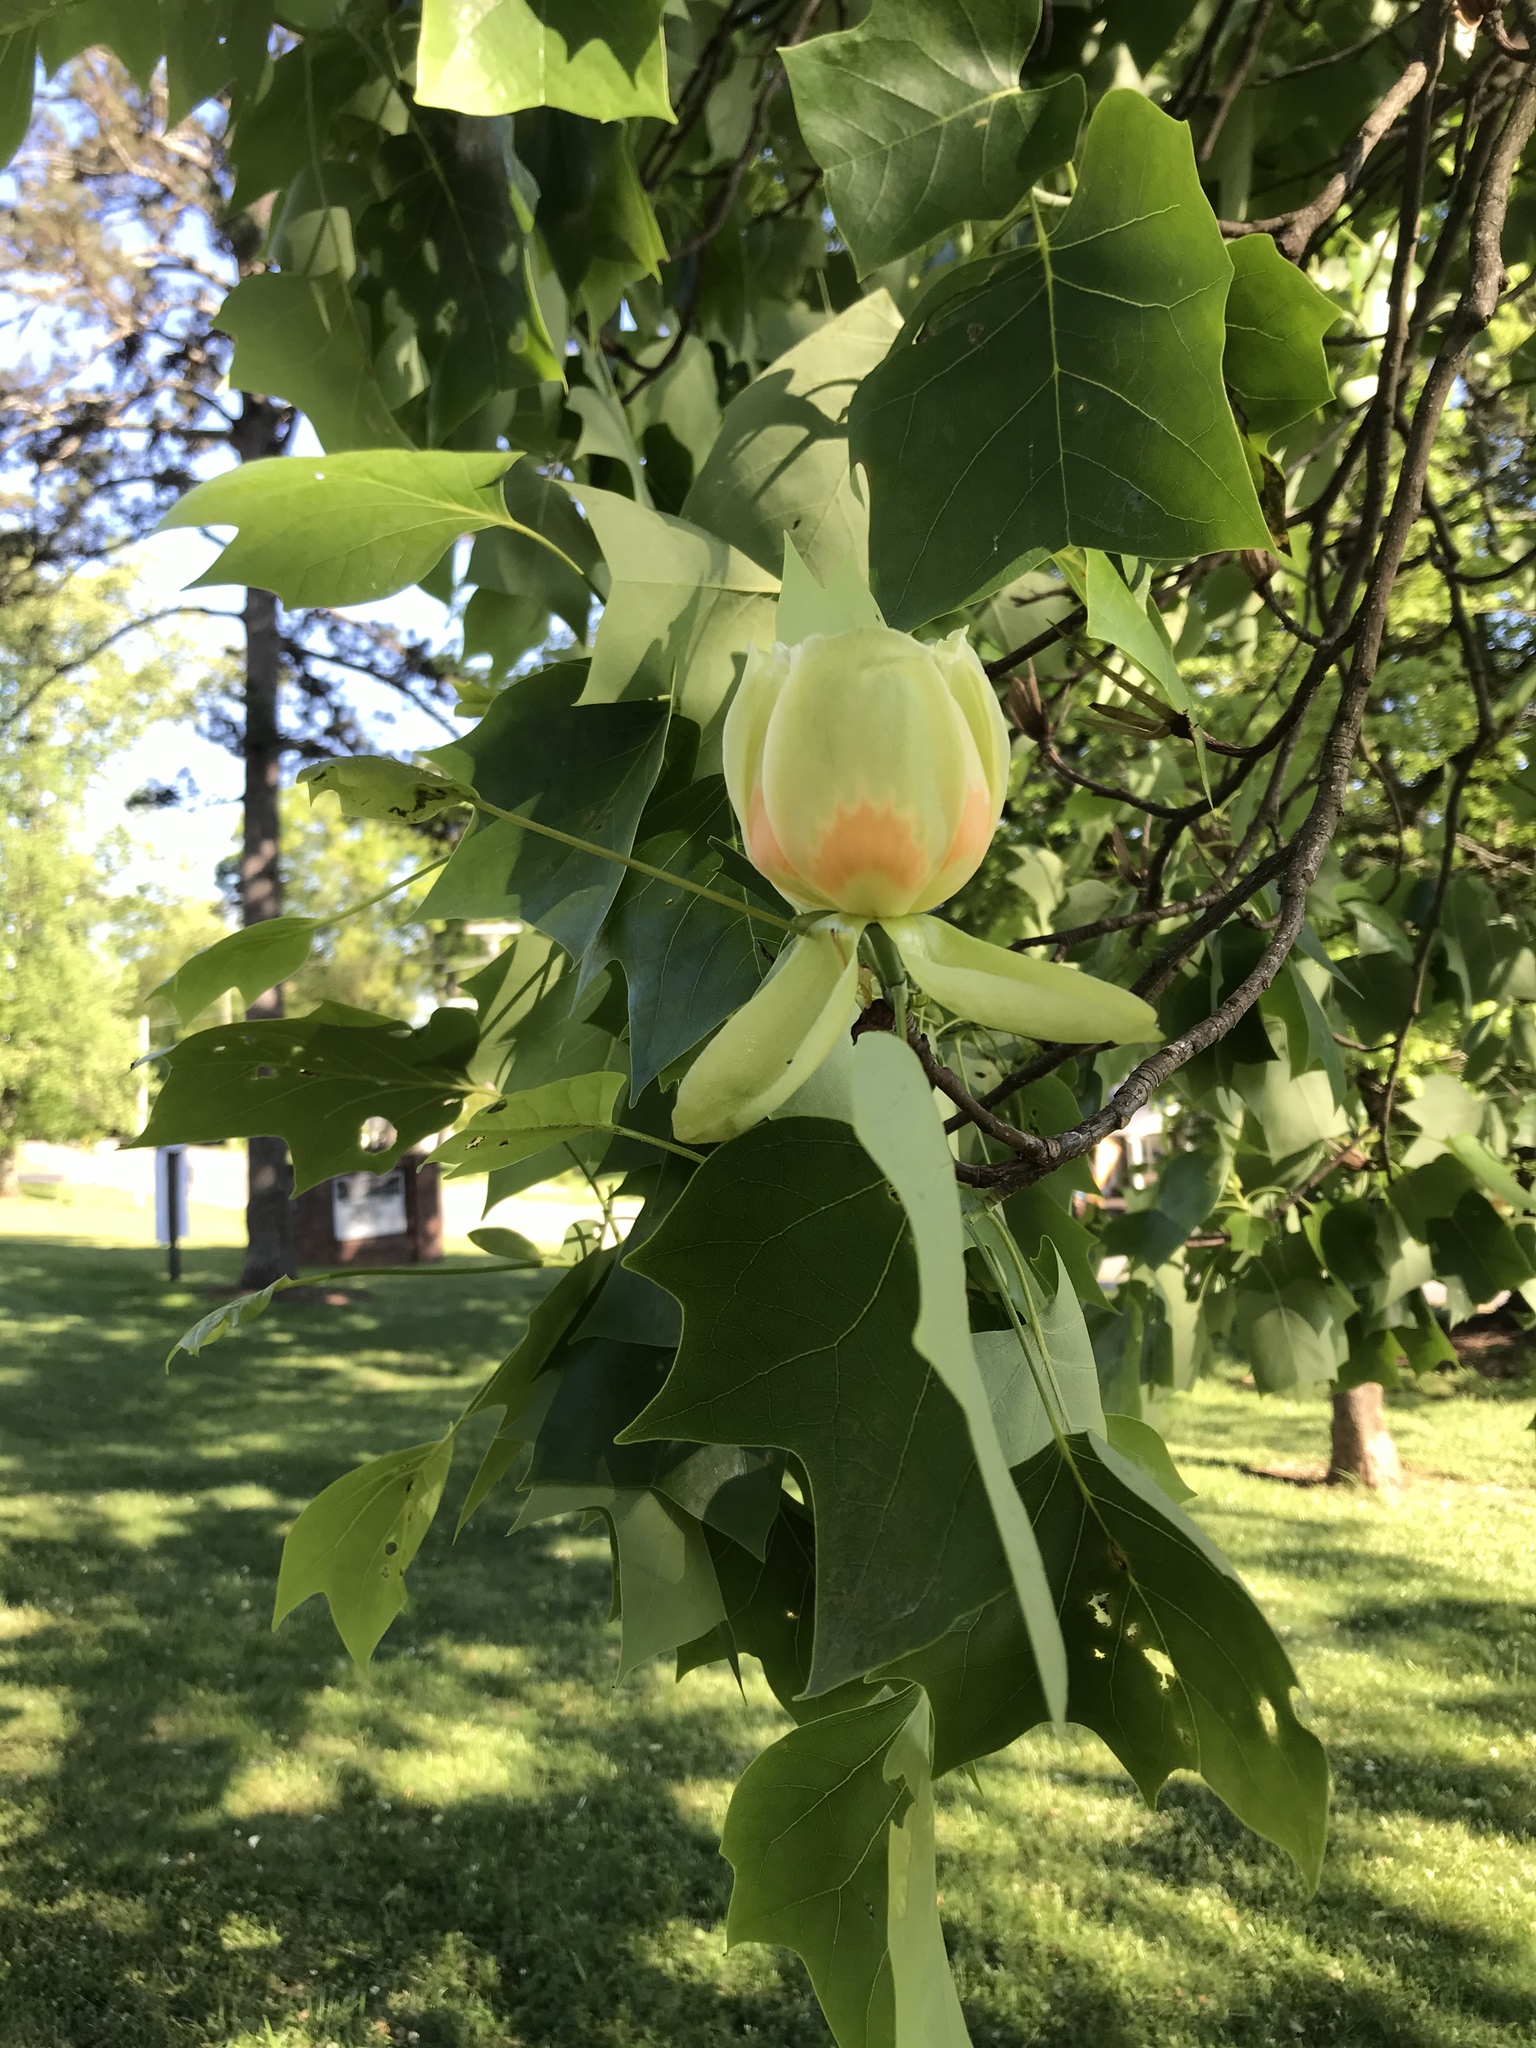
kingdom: Plantae
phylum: Tracheophyta
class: Magnoliopsida
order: Magnoliales
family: Magnoliaceae
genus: Liriodendron
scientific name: Liriodendron tulipifera
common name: Tulip tree
